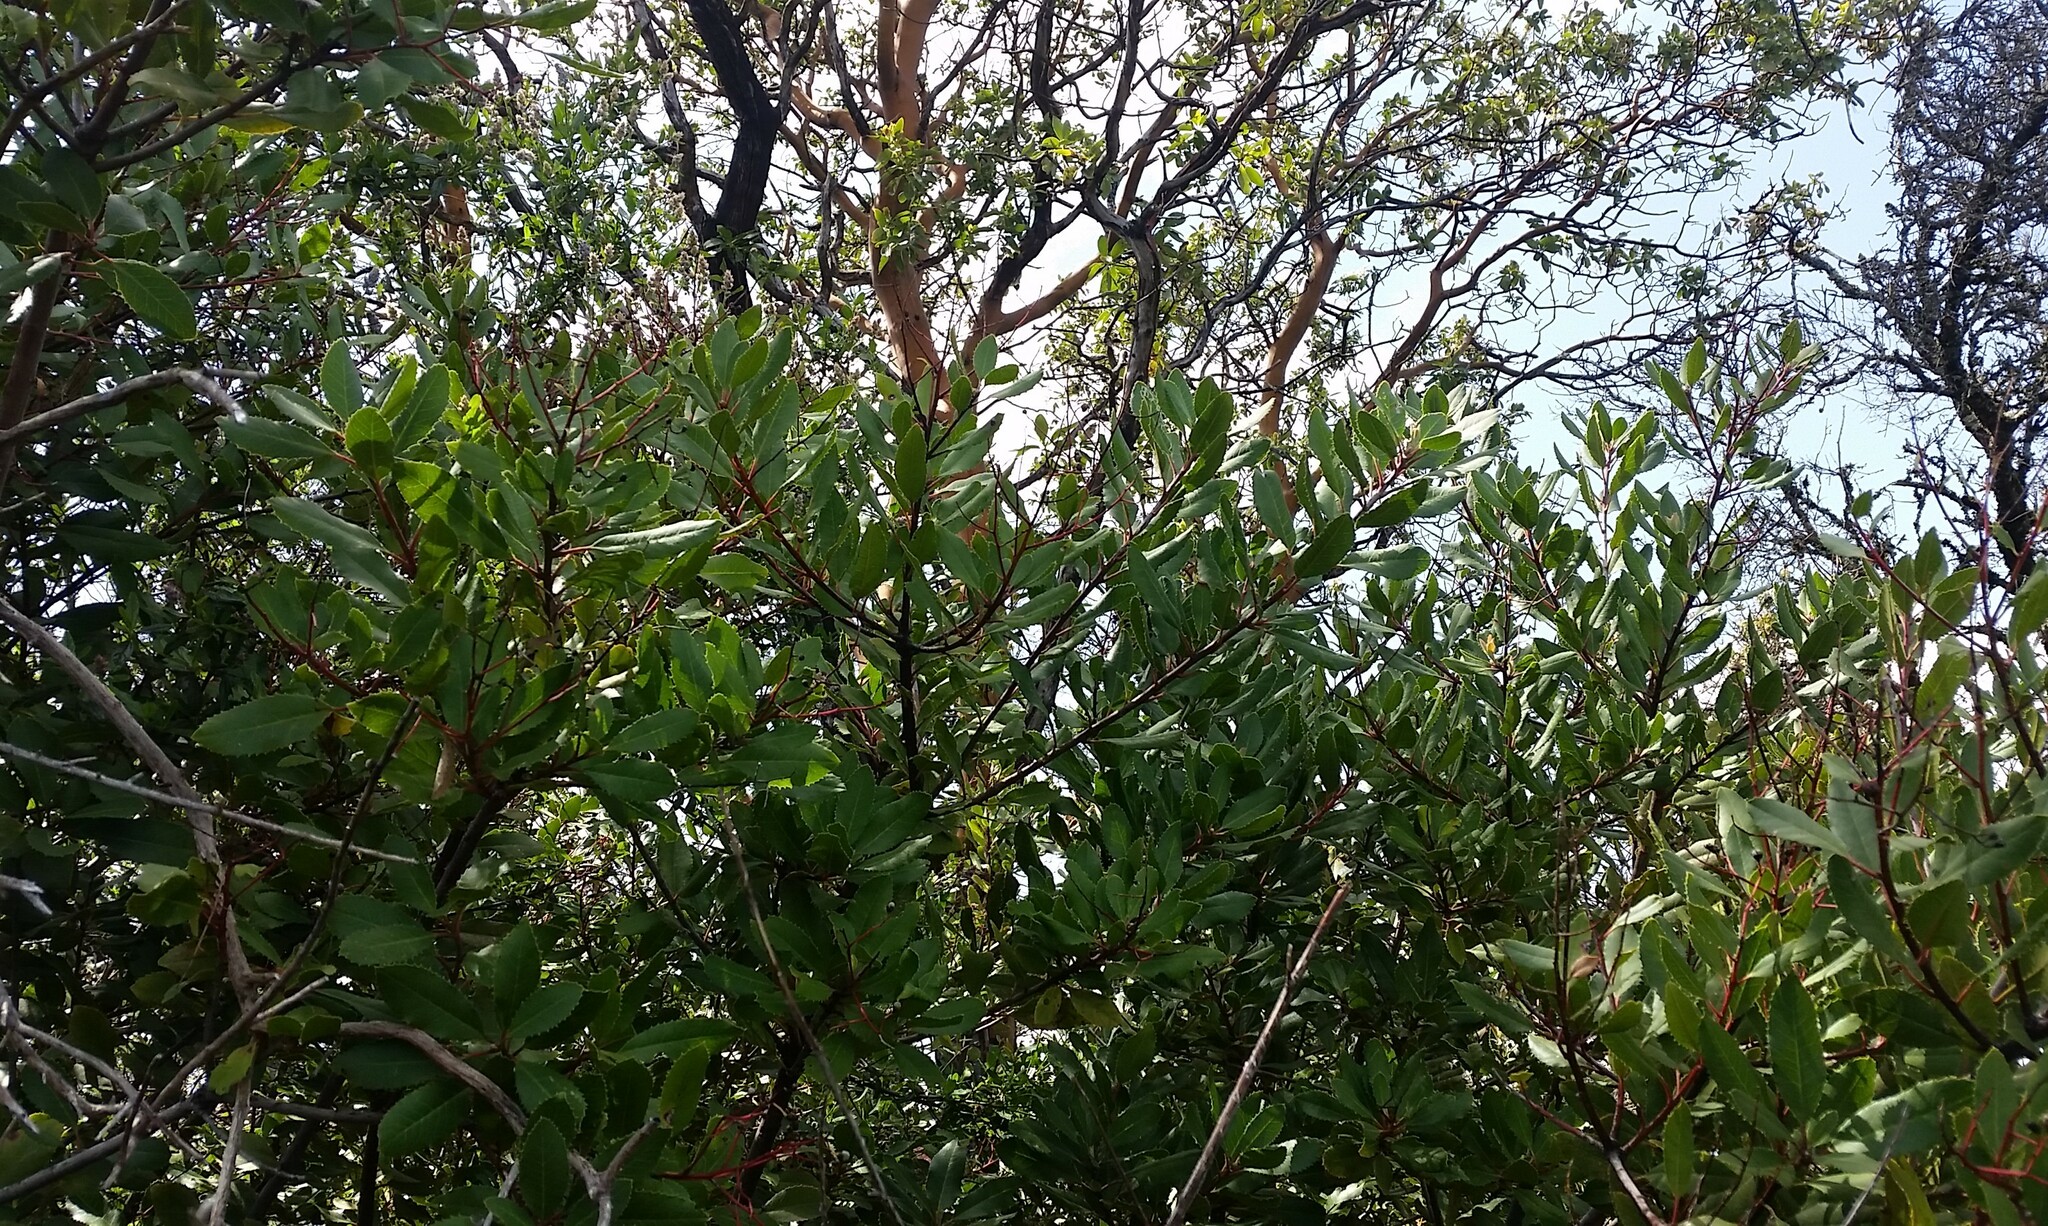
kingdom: Plantae
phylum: Tracheophyta
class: Magnoliopsida
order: Rosales
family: Rosaceae
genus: Heteromeles
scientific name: Heteromeles arbutifolia
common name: California-holly
